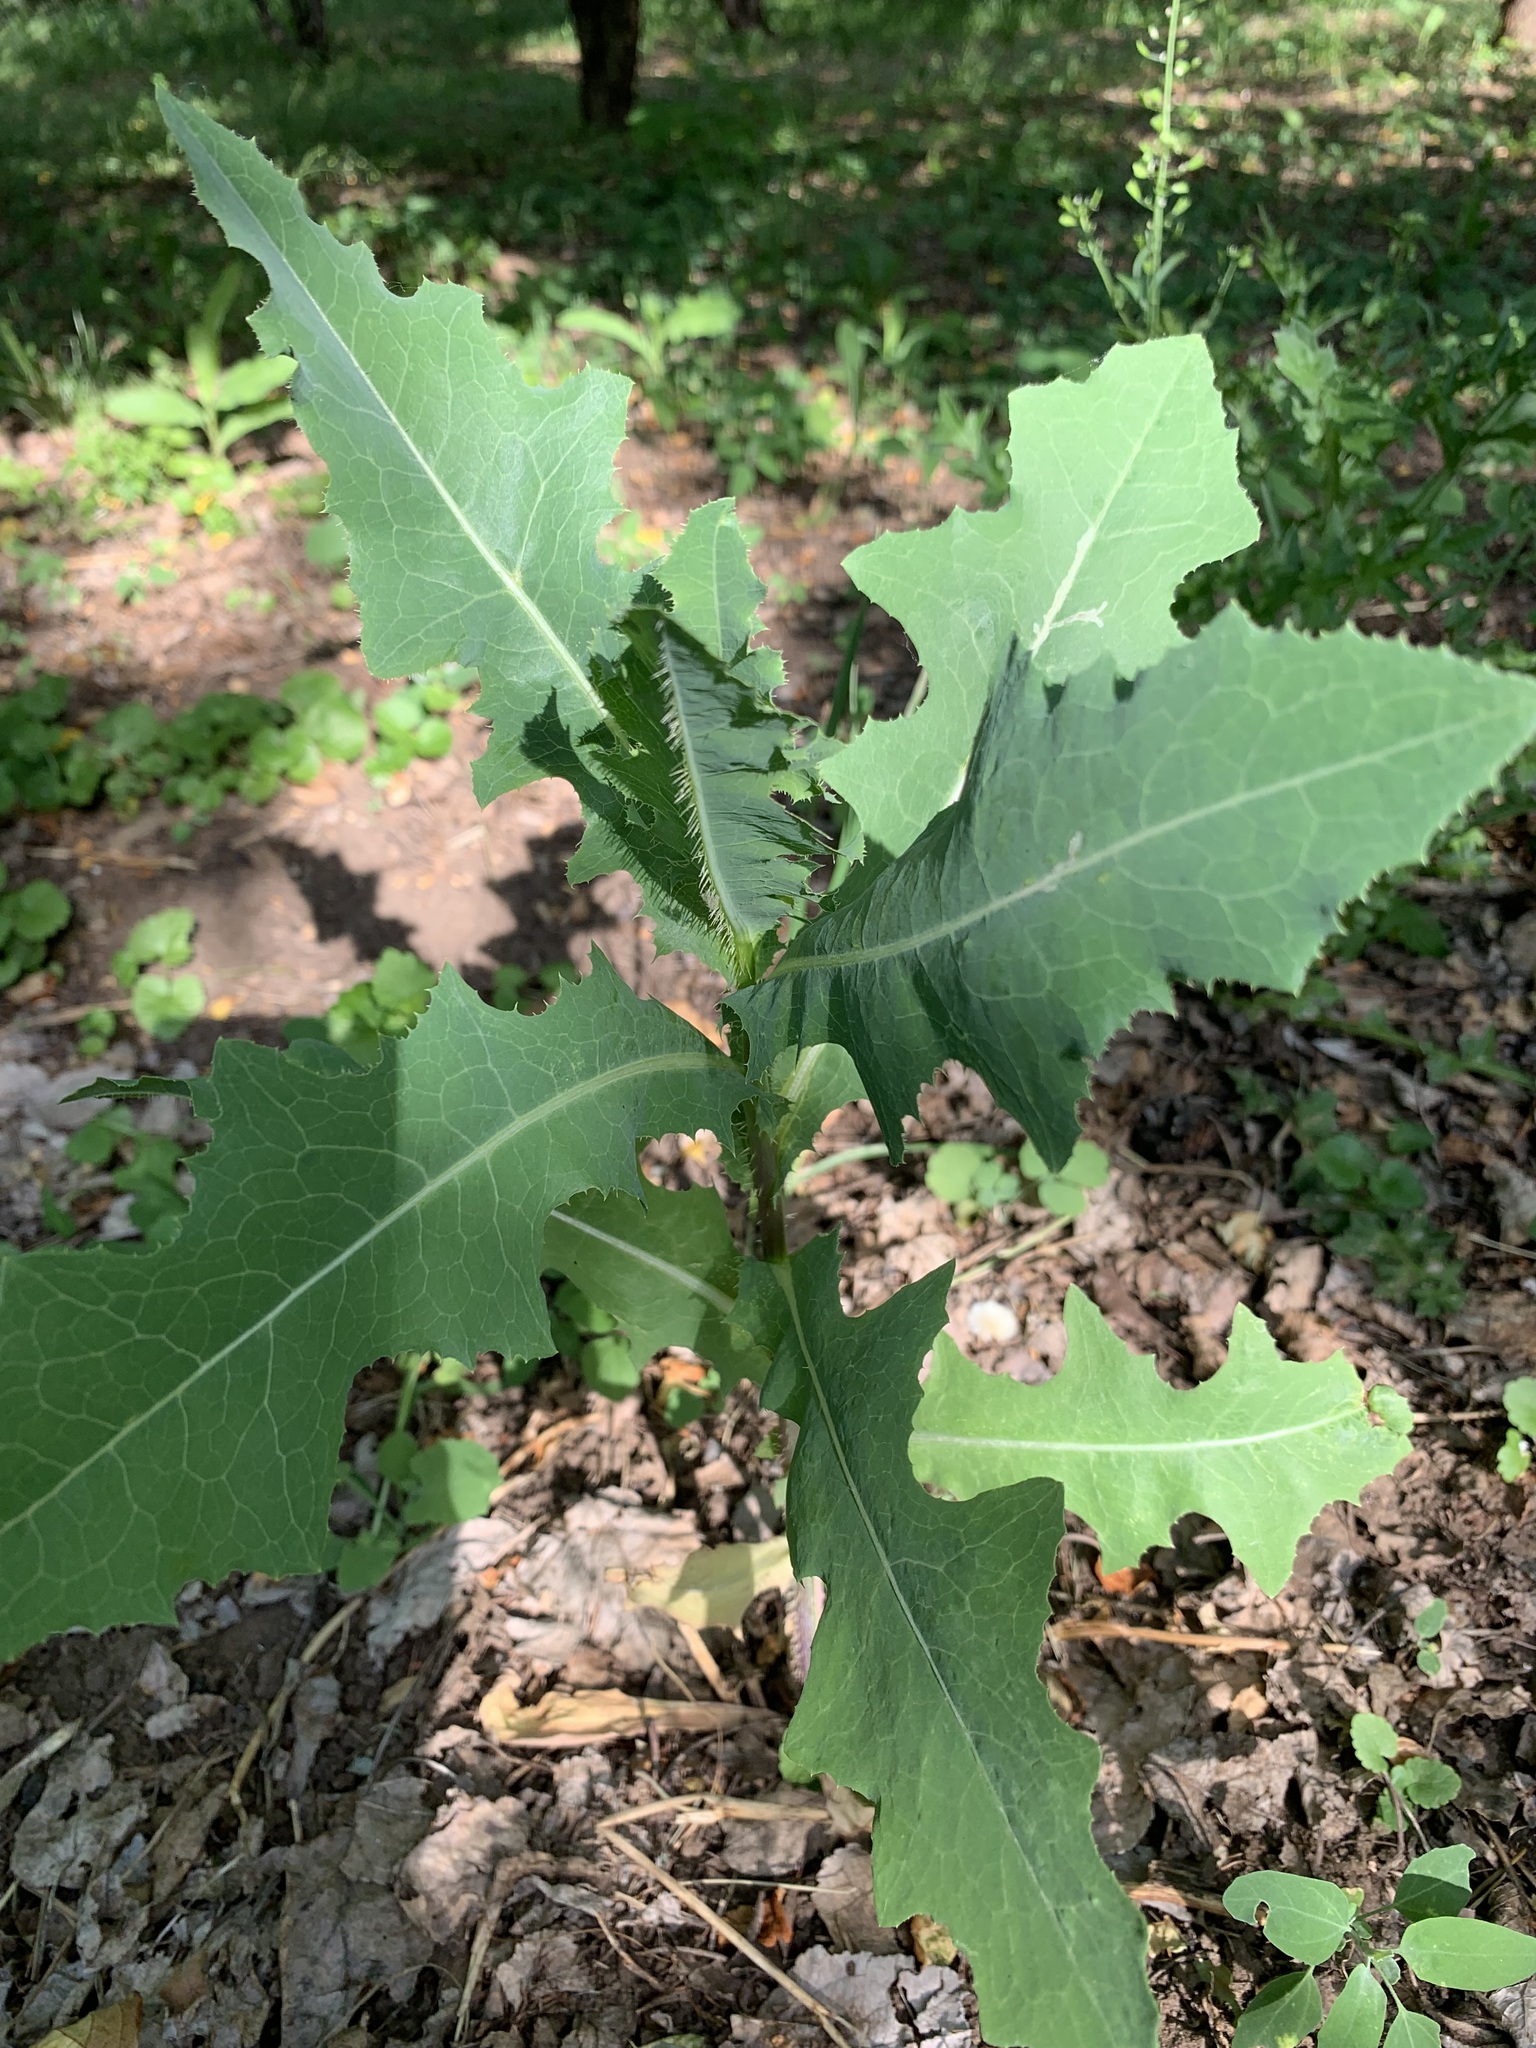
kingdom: Plantae
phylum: Tracheophyta
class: Magnoliopsida
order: Asterales
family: Asteraceae
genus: Lactuca
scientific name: Lactuca serriola
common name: Prickly lettuce
